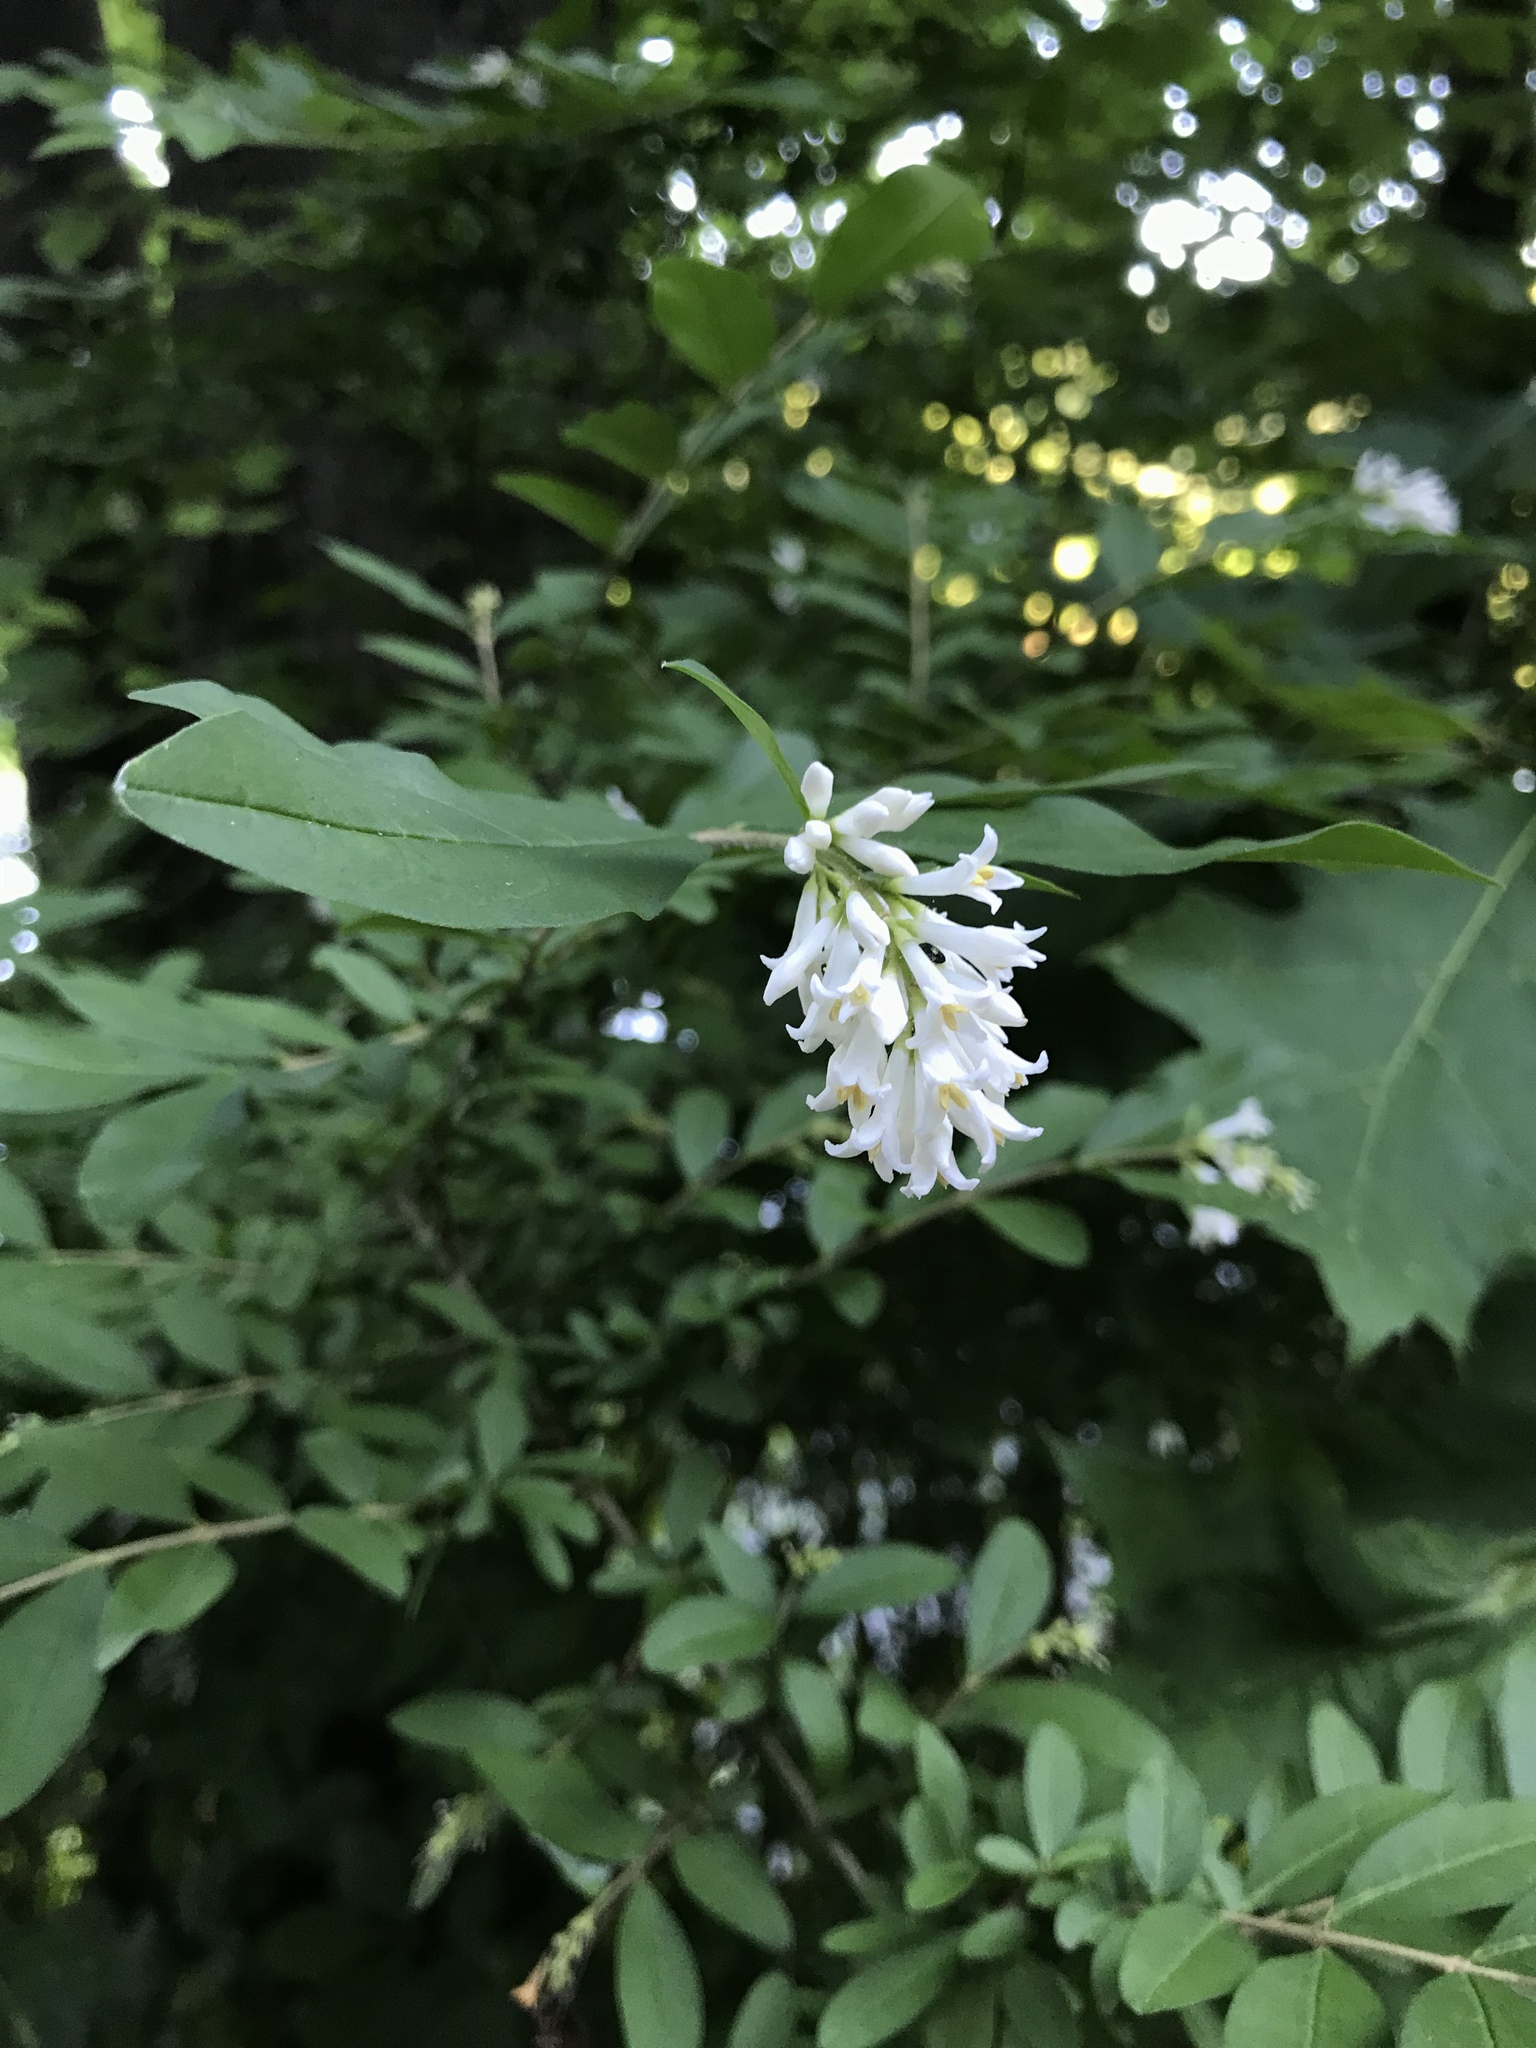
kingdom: Plantae
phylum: Tracheophyta
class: Magnoliopsida
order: Lamiales
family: Oleaceae
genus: Ligustrum
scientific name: Ligustrum obtusifolium
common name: Border privet
